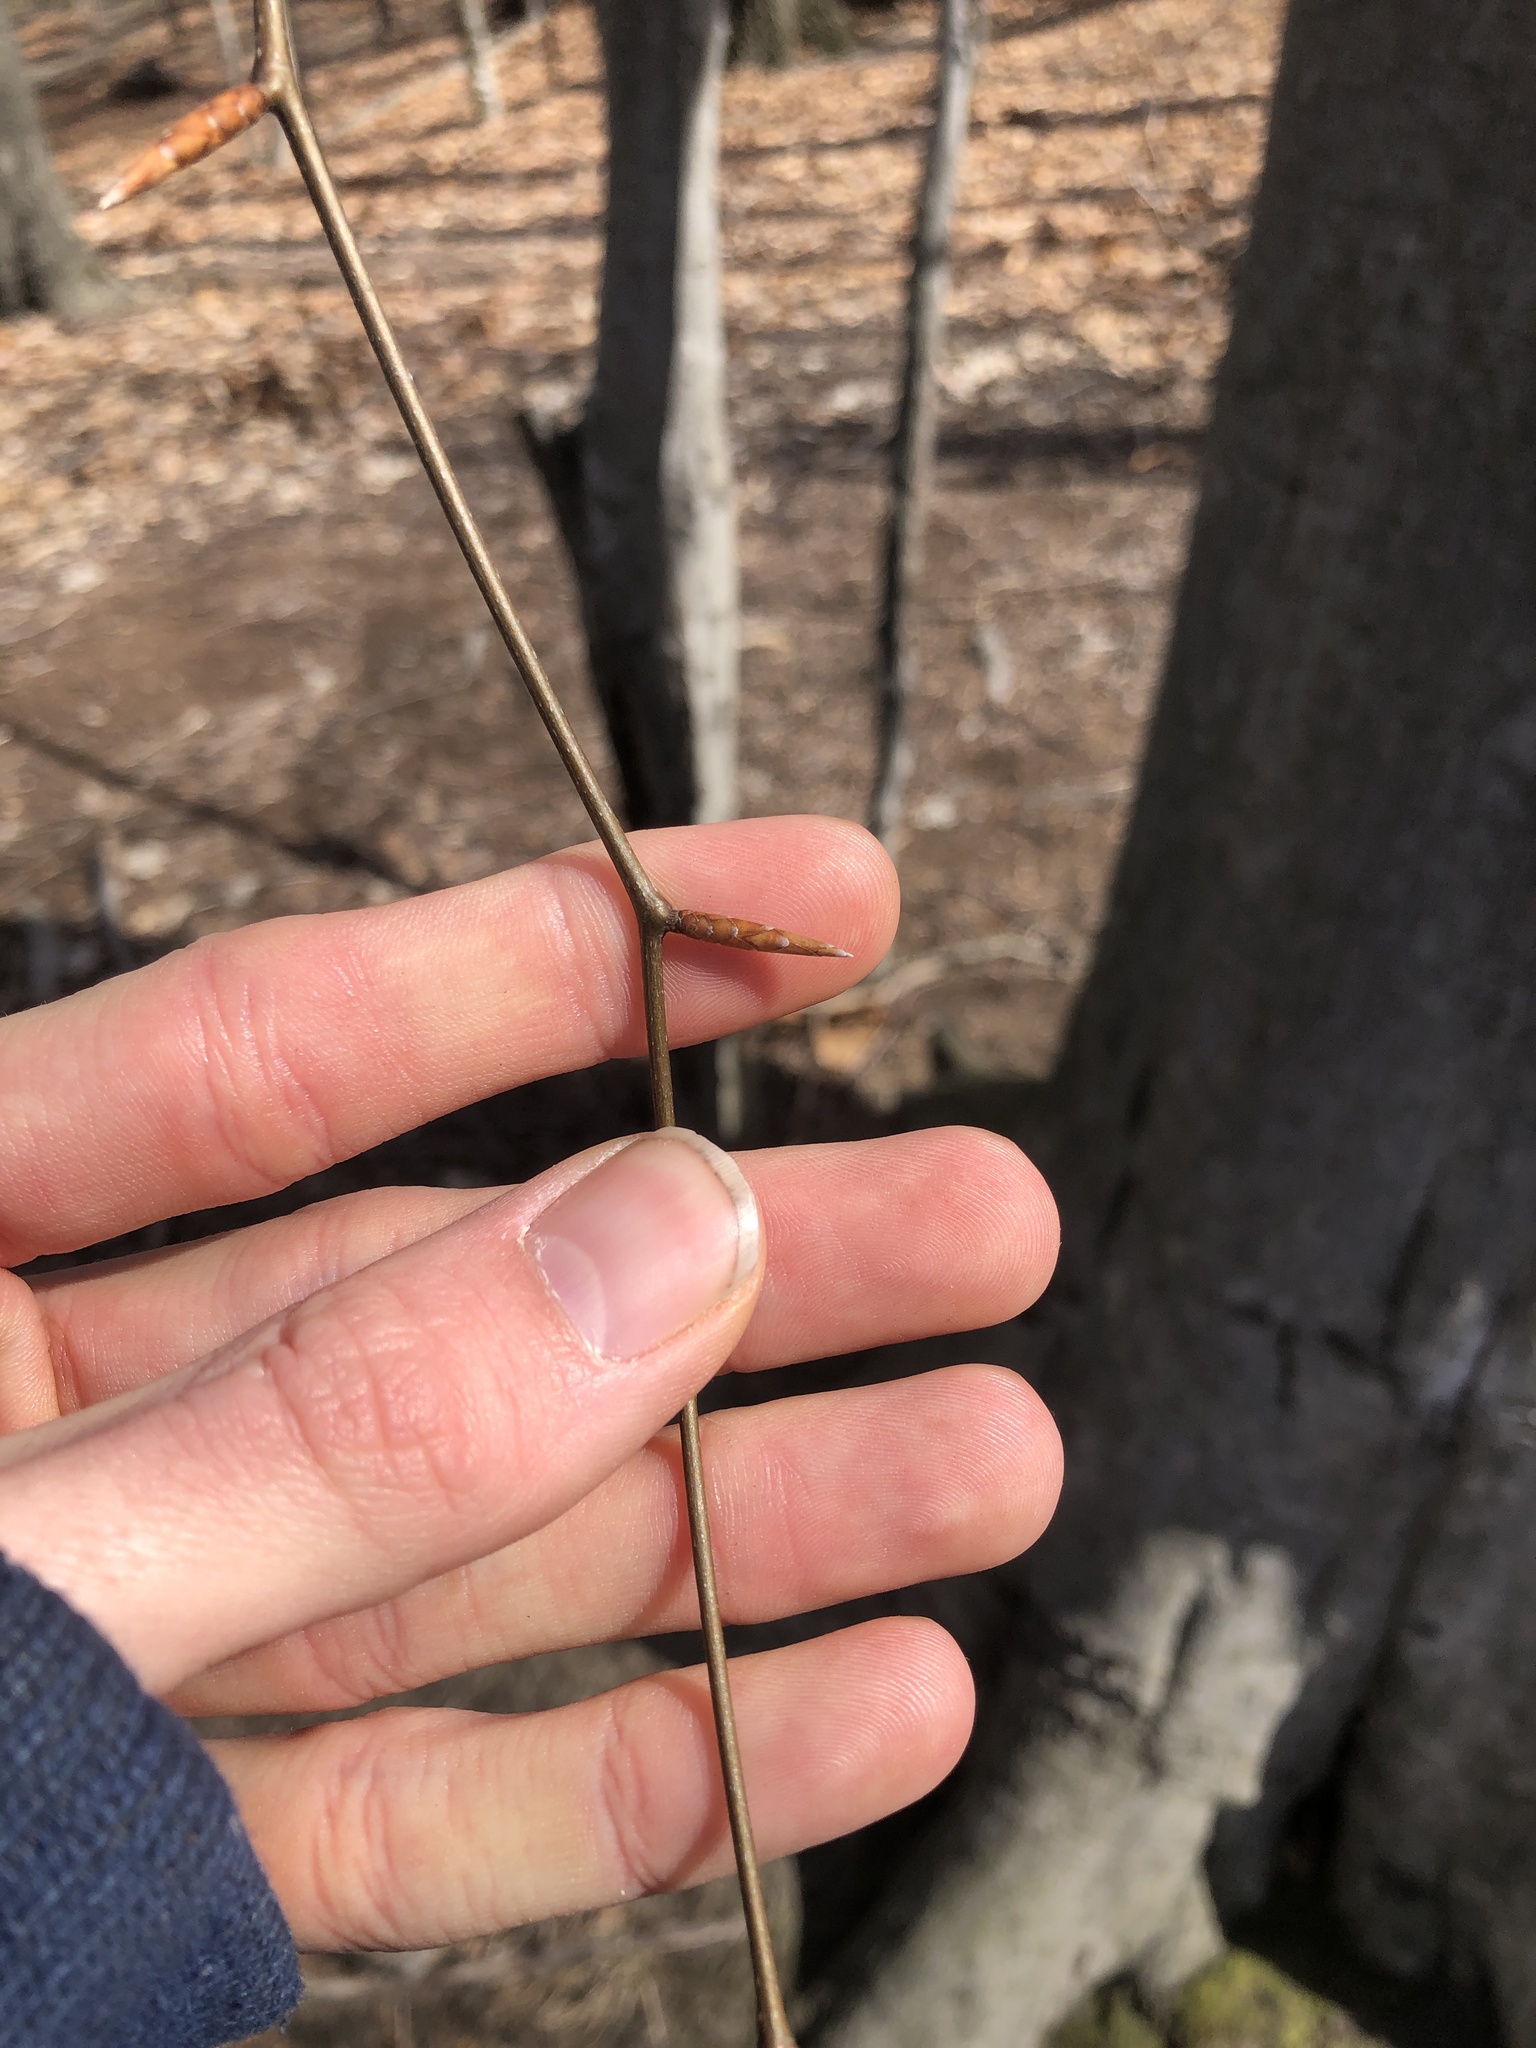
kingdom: Plantae
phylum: Tracheophyta
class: Magnoliopsida
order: Fagales
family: Fagaceae
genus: Fagus
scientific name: Fagus grandifolia
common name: American beech
